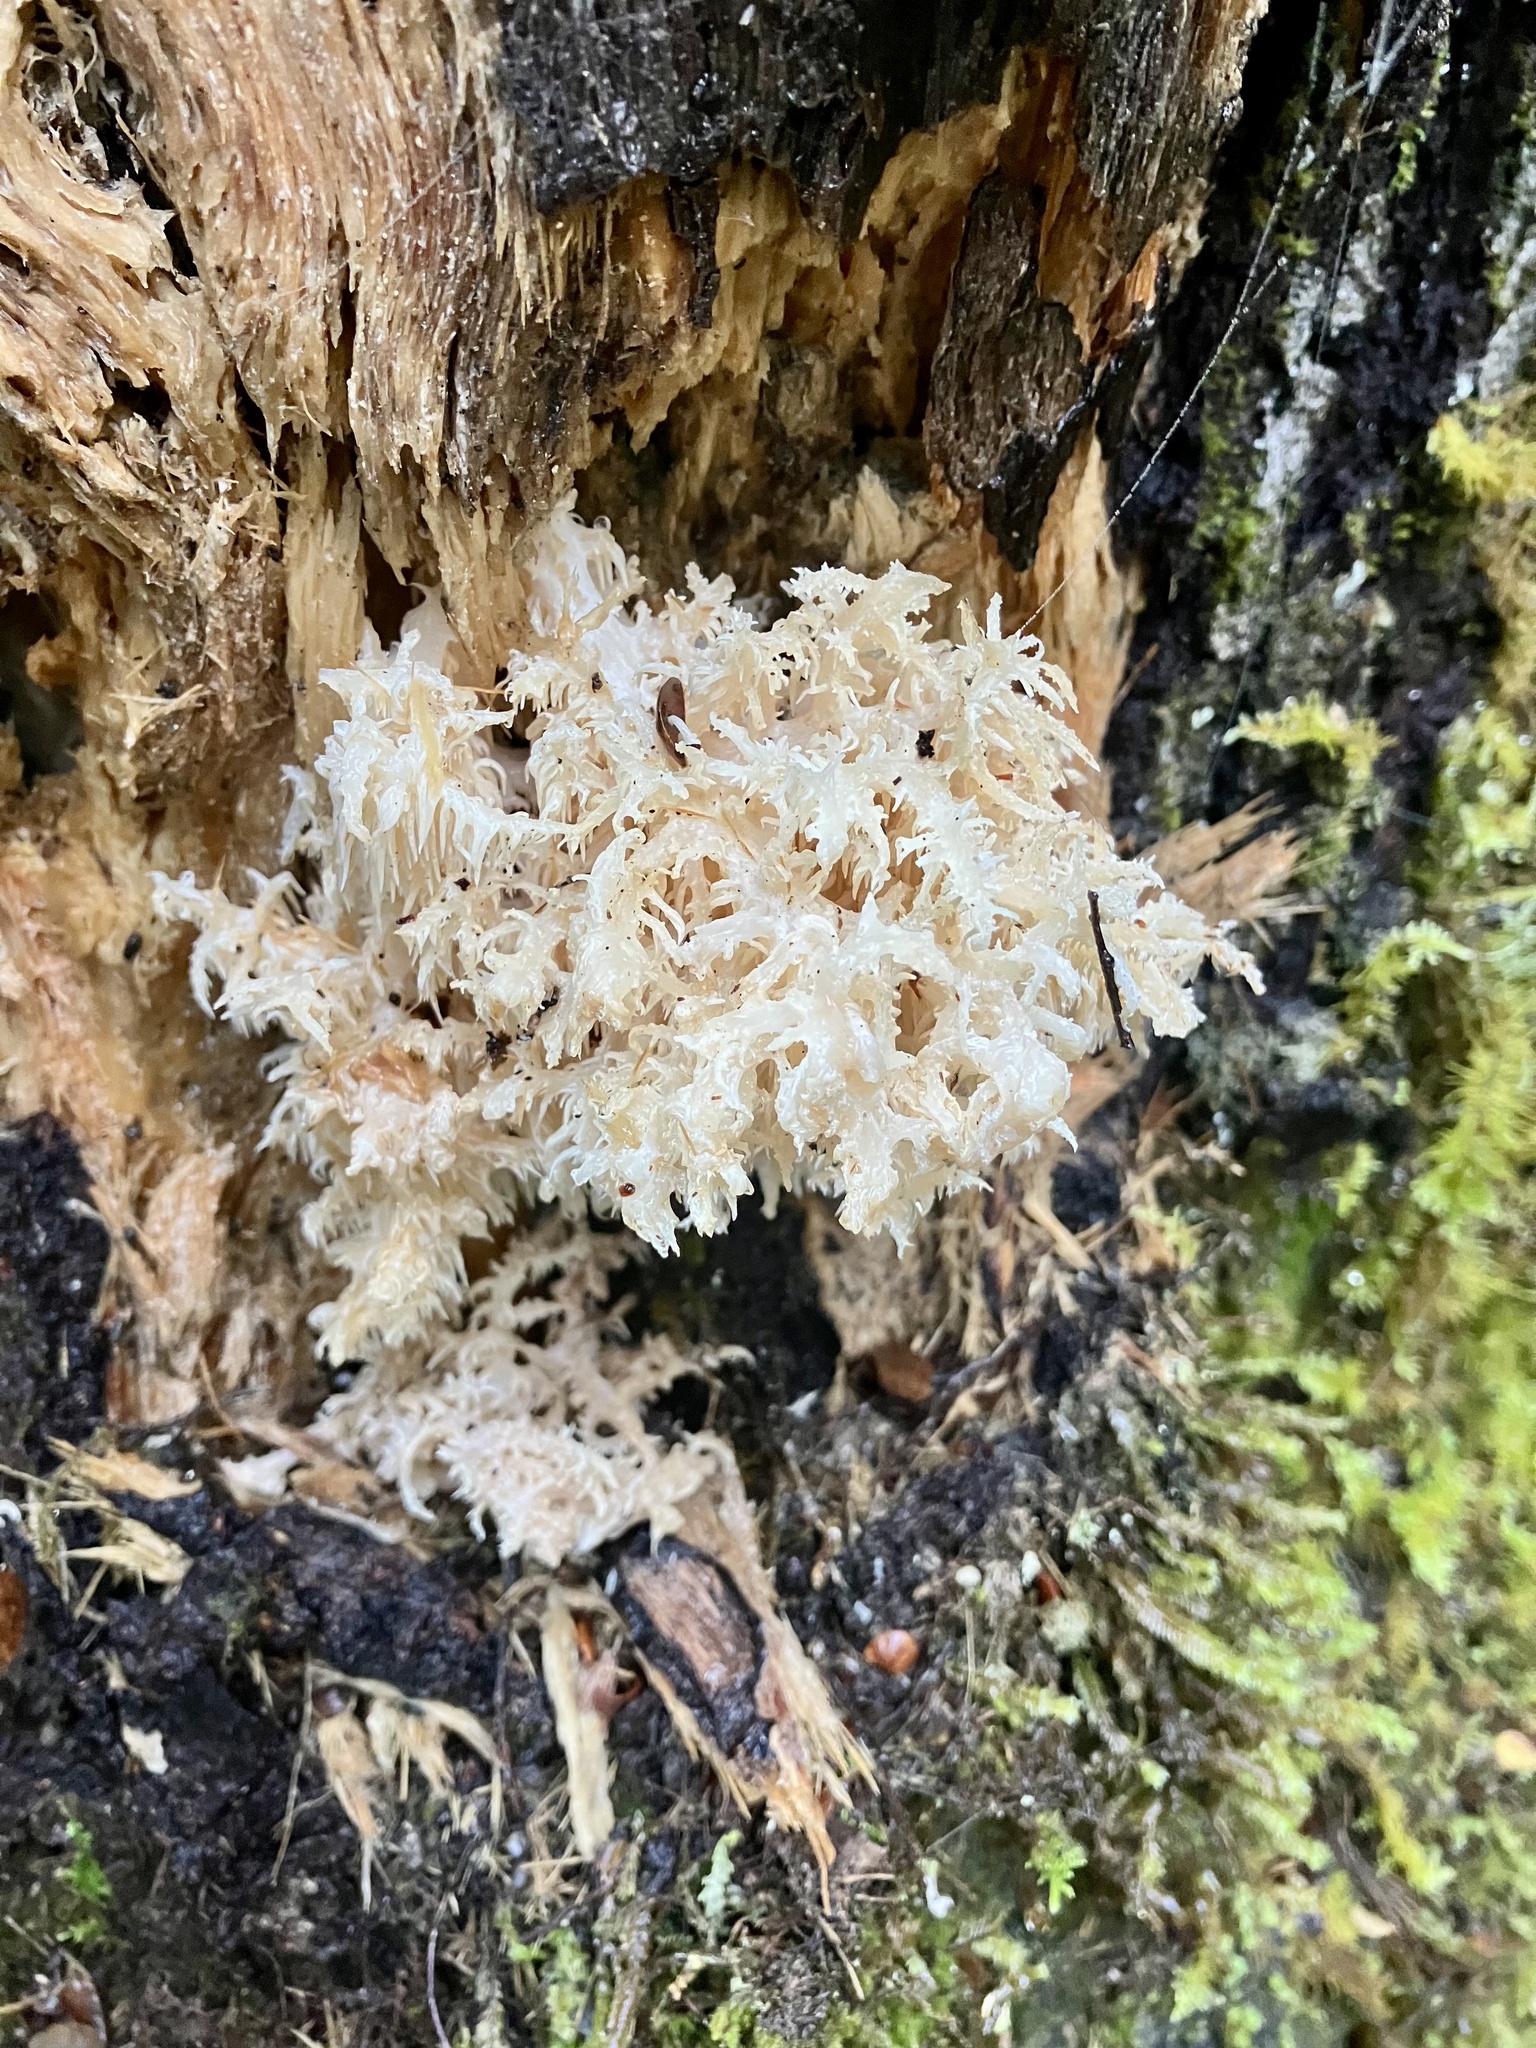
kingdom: Fungi
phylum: Basidiomycota
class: Agaricomycetes
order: Russulales
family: Hericiaceae
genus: Hericium
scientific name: Hericium novae-zealandiae
